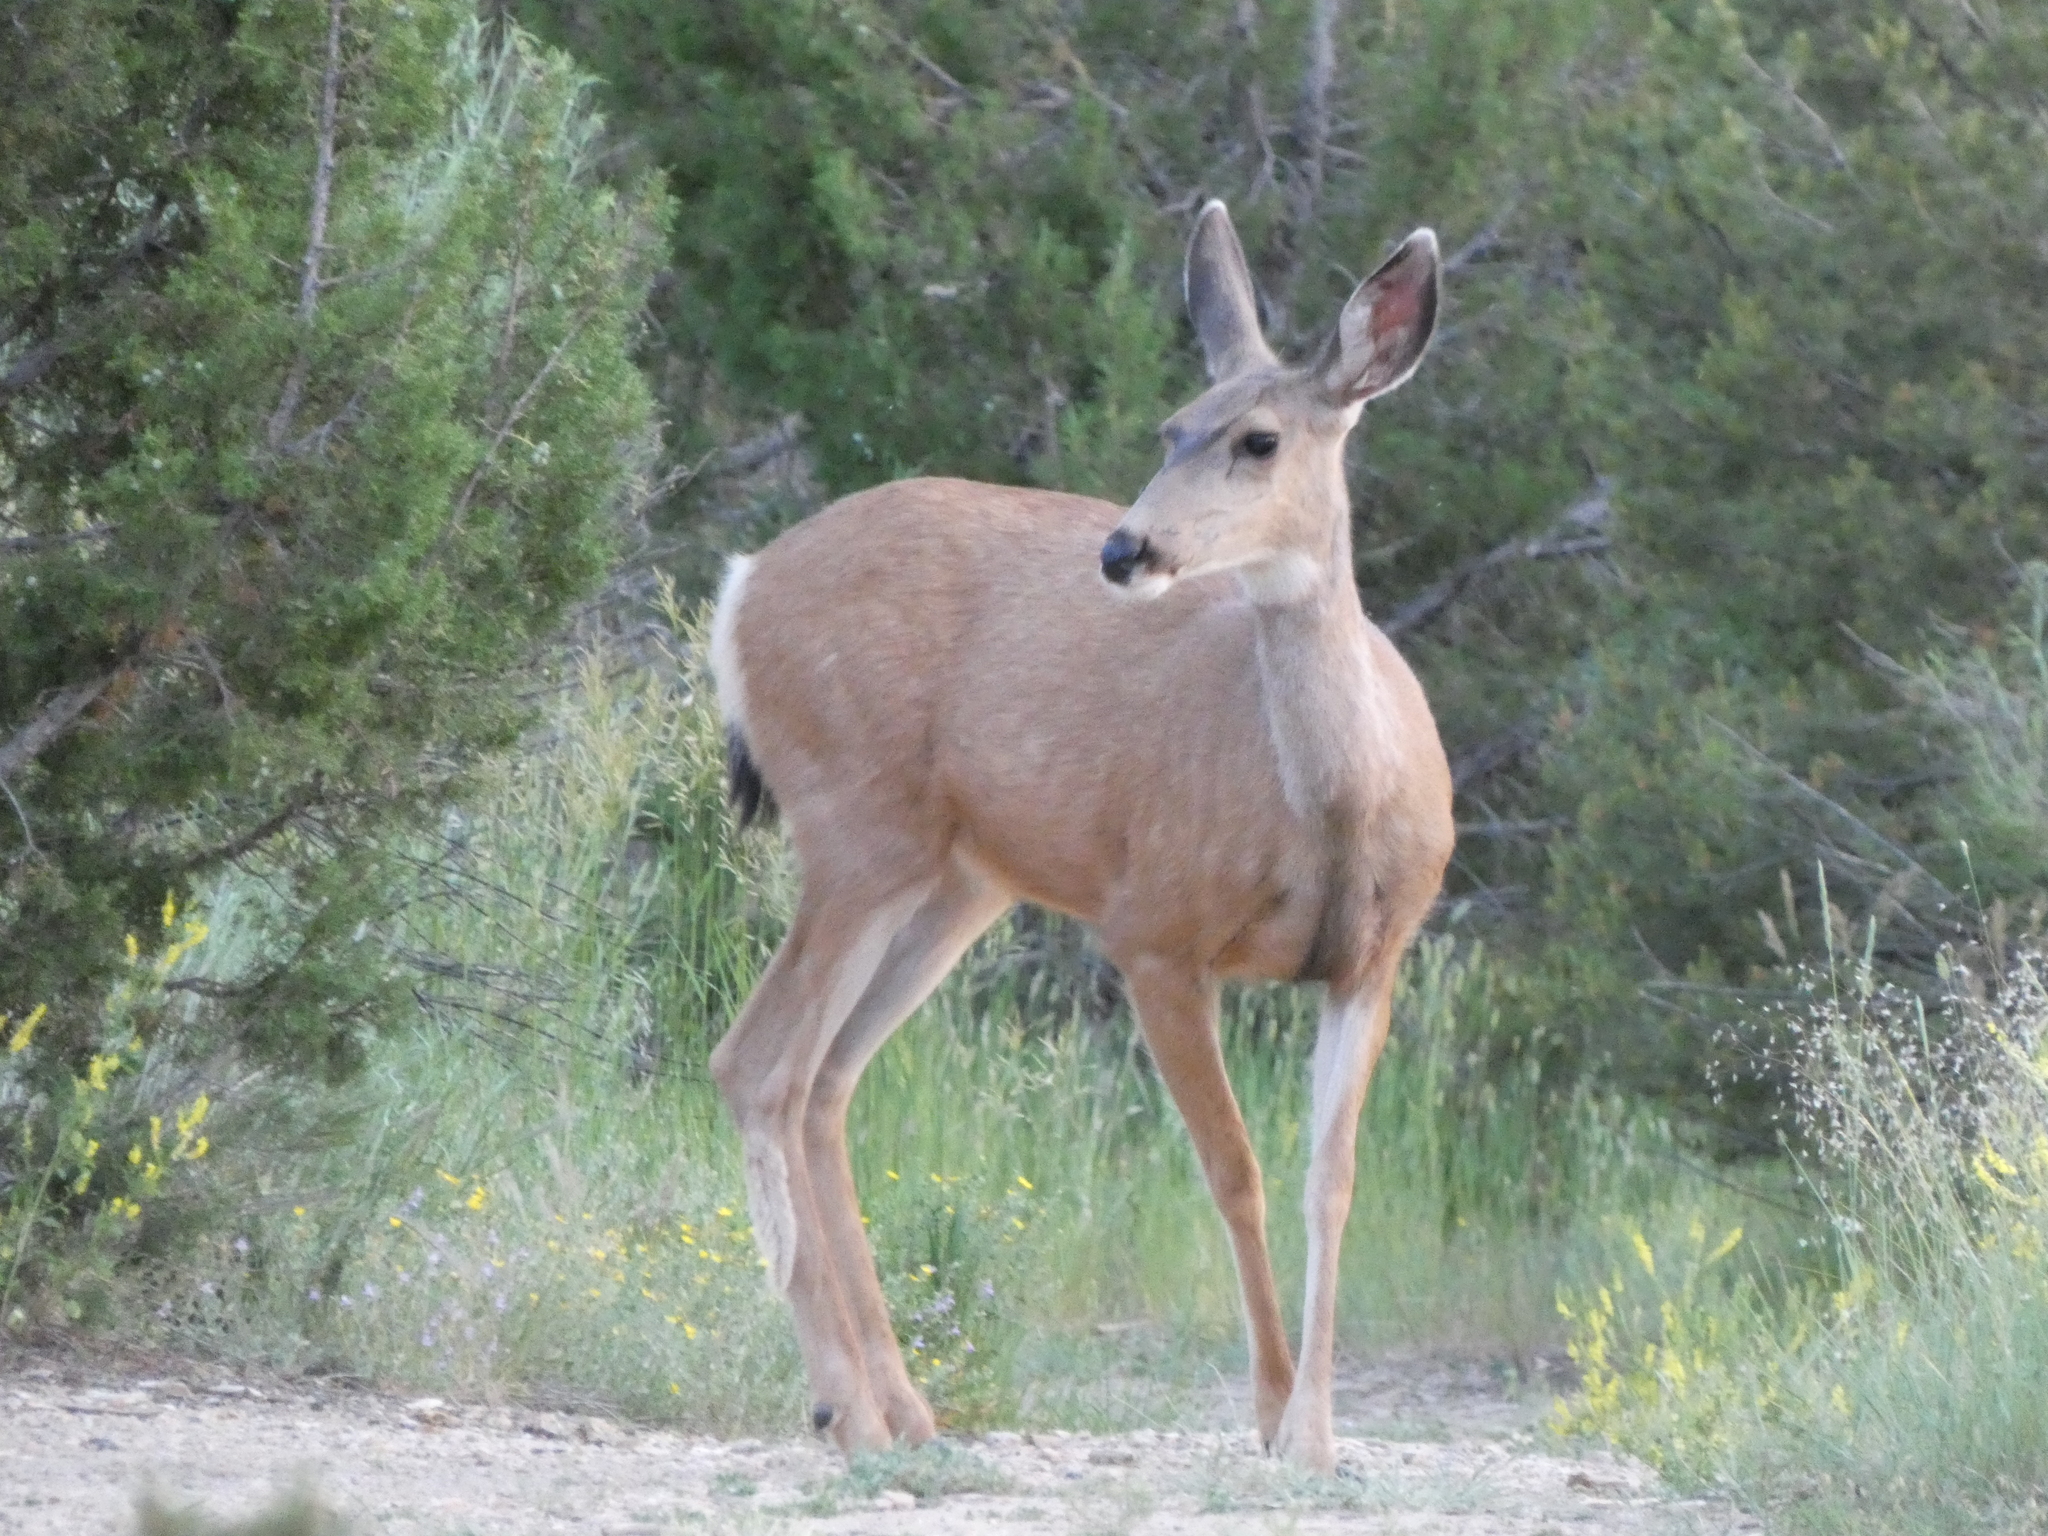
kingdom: Animalia
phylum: Chordata
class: Mammalia
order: Artiodactyla
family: Cervidae
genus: Odocoileus
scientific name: Odocoileus hemionus
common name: Mule deer
